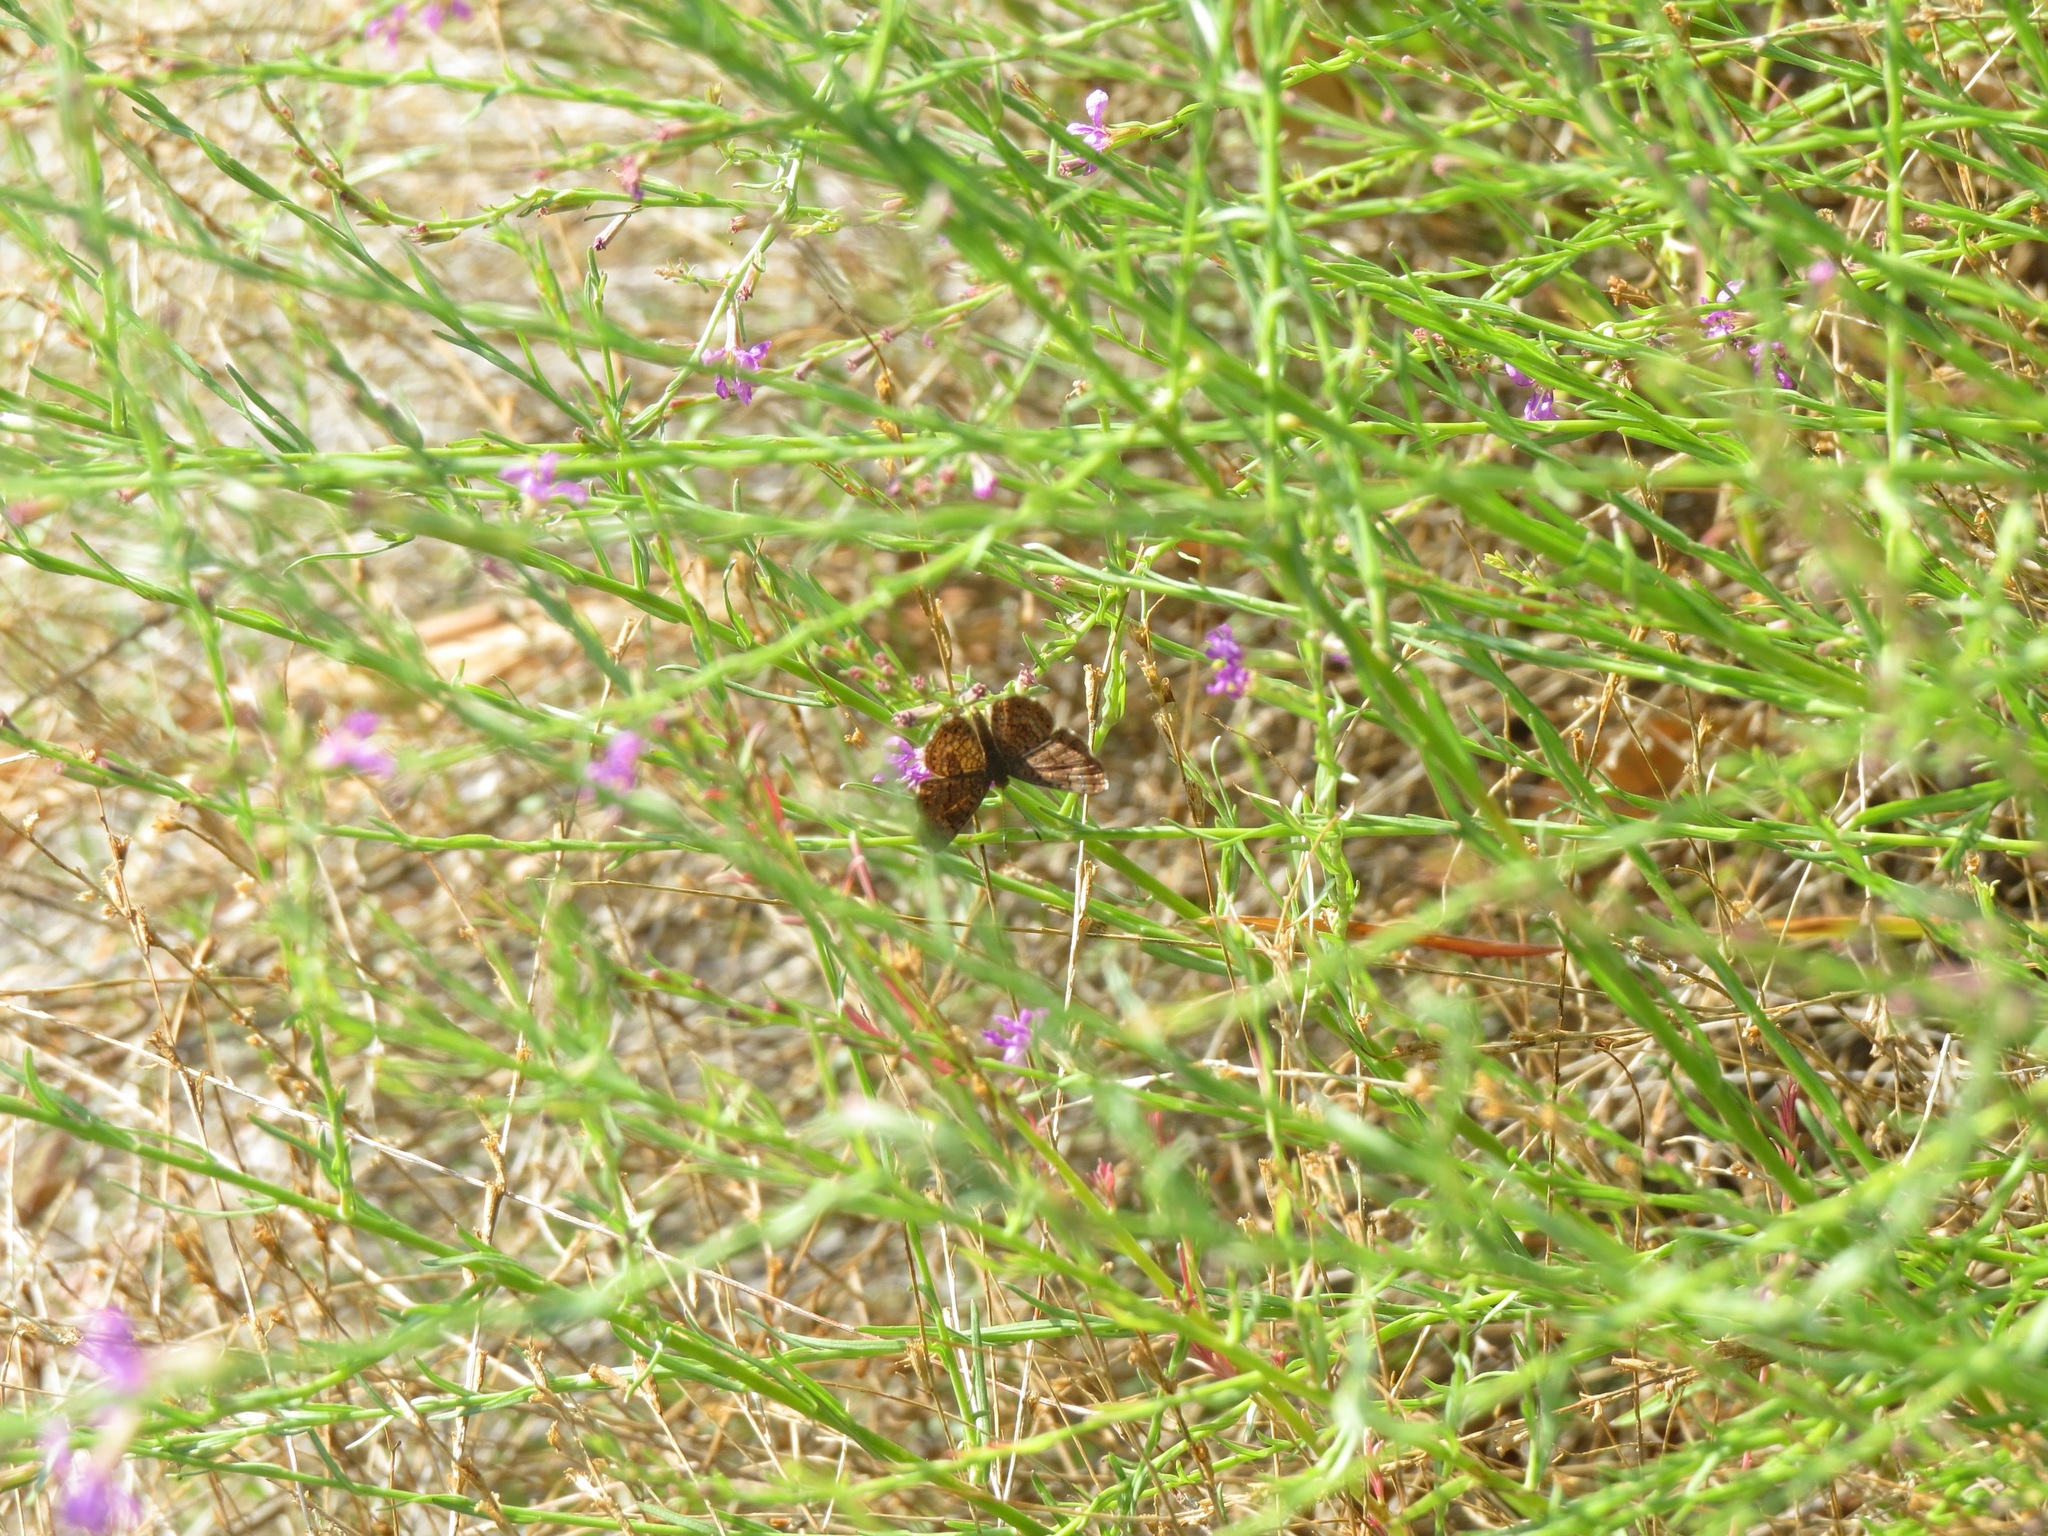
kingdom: Animalia
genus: Calephelis
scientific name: Calephelis nemesis
